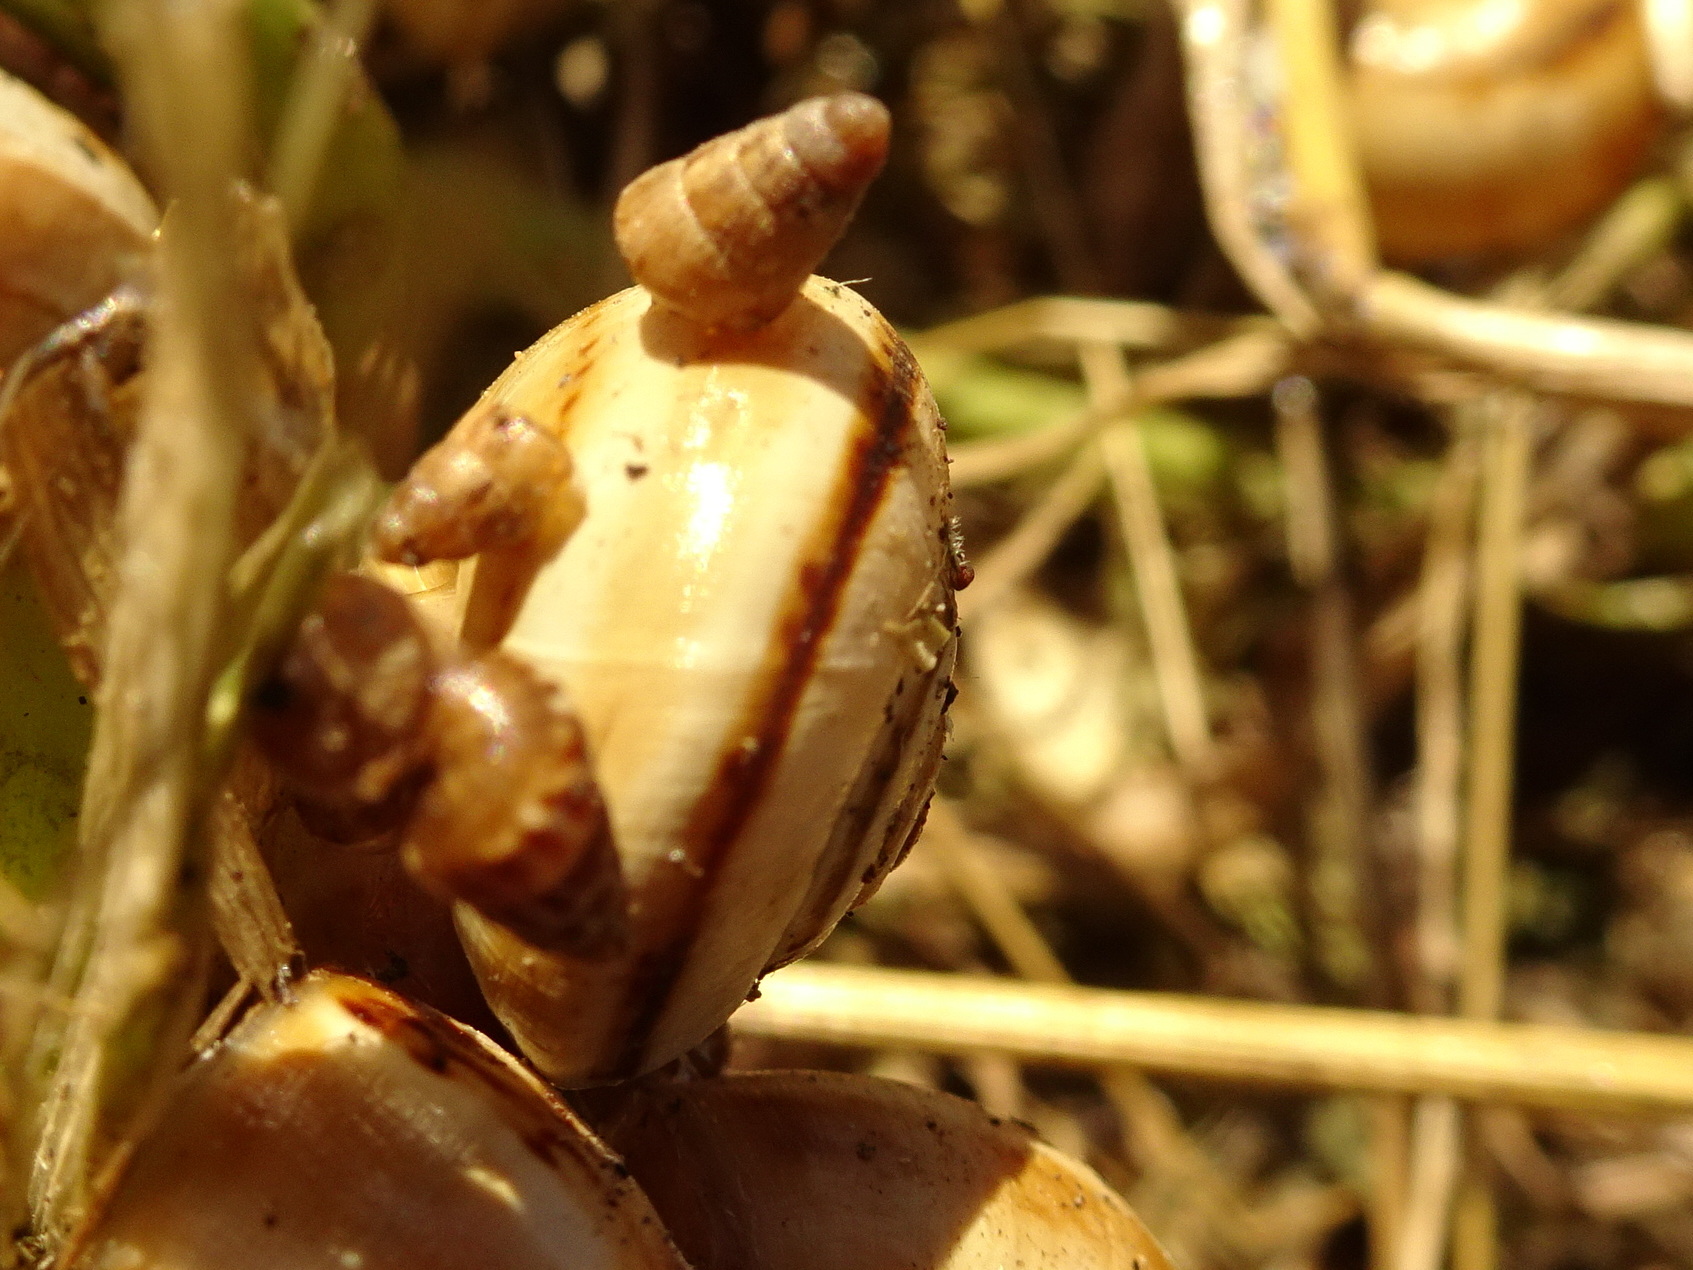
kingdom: Animalia
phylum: Mollusca
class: Gastropoda
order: Stylommatophora
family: Helicidae
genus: Theba
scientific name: Theba pisana
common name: White snail
